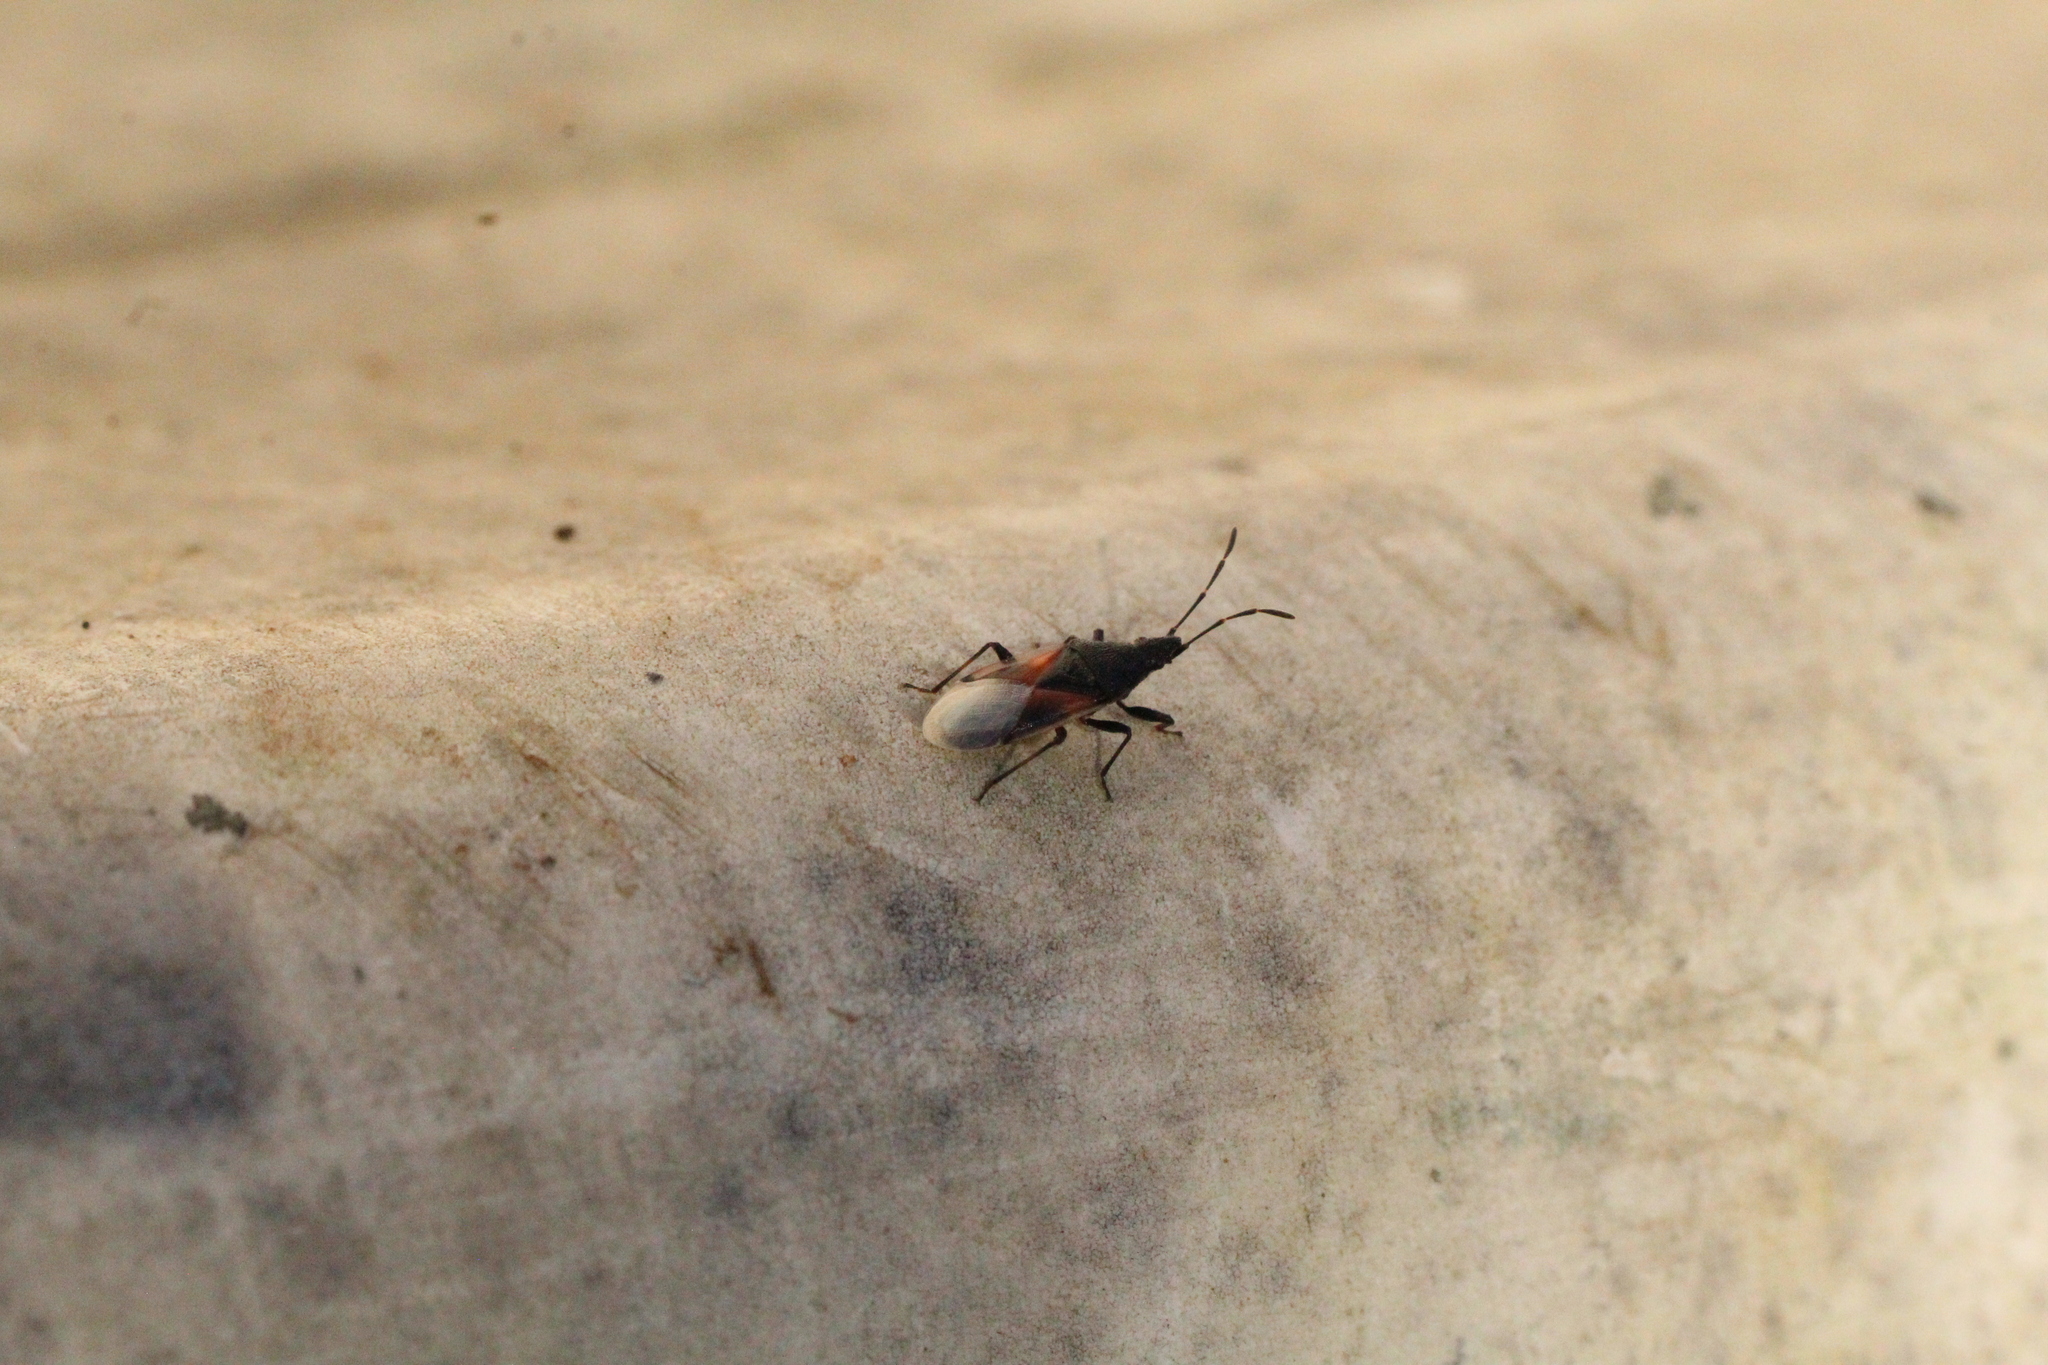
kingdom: Animalia
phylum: Arthropoda
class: Insecta
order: Hemiptera
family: Oxycarenidae
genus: Oxycarenus
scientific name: Oxycarenus lavaterae
